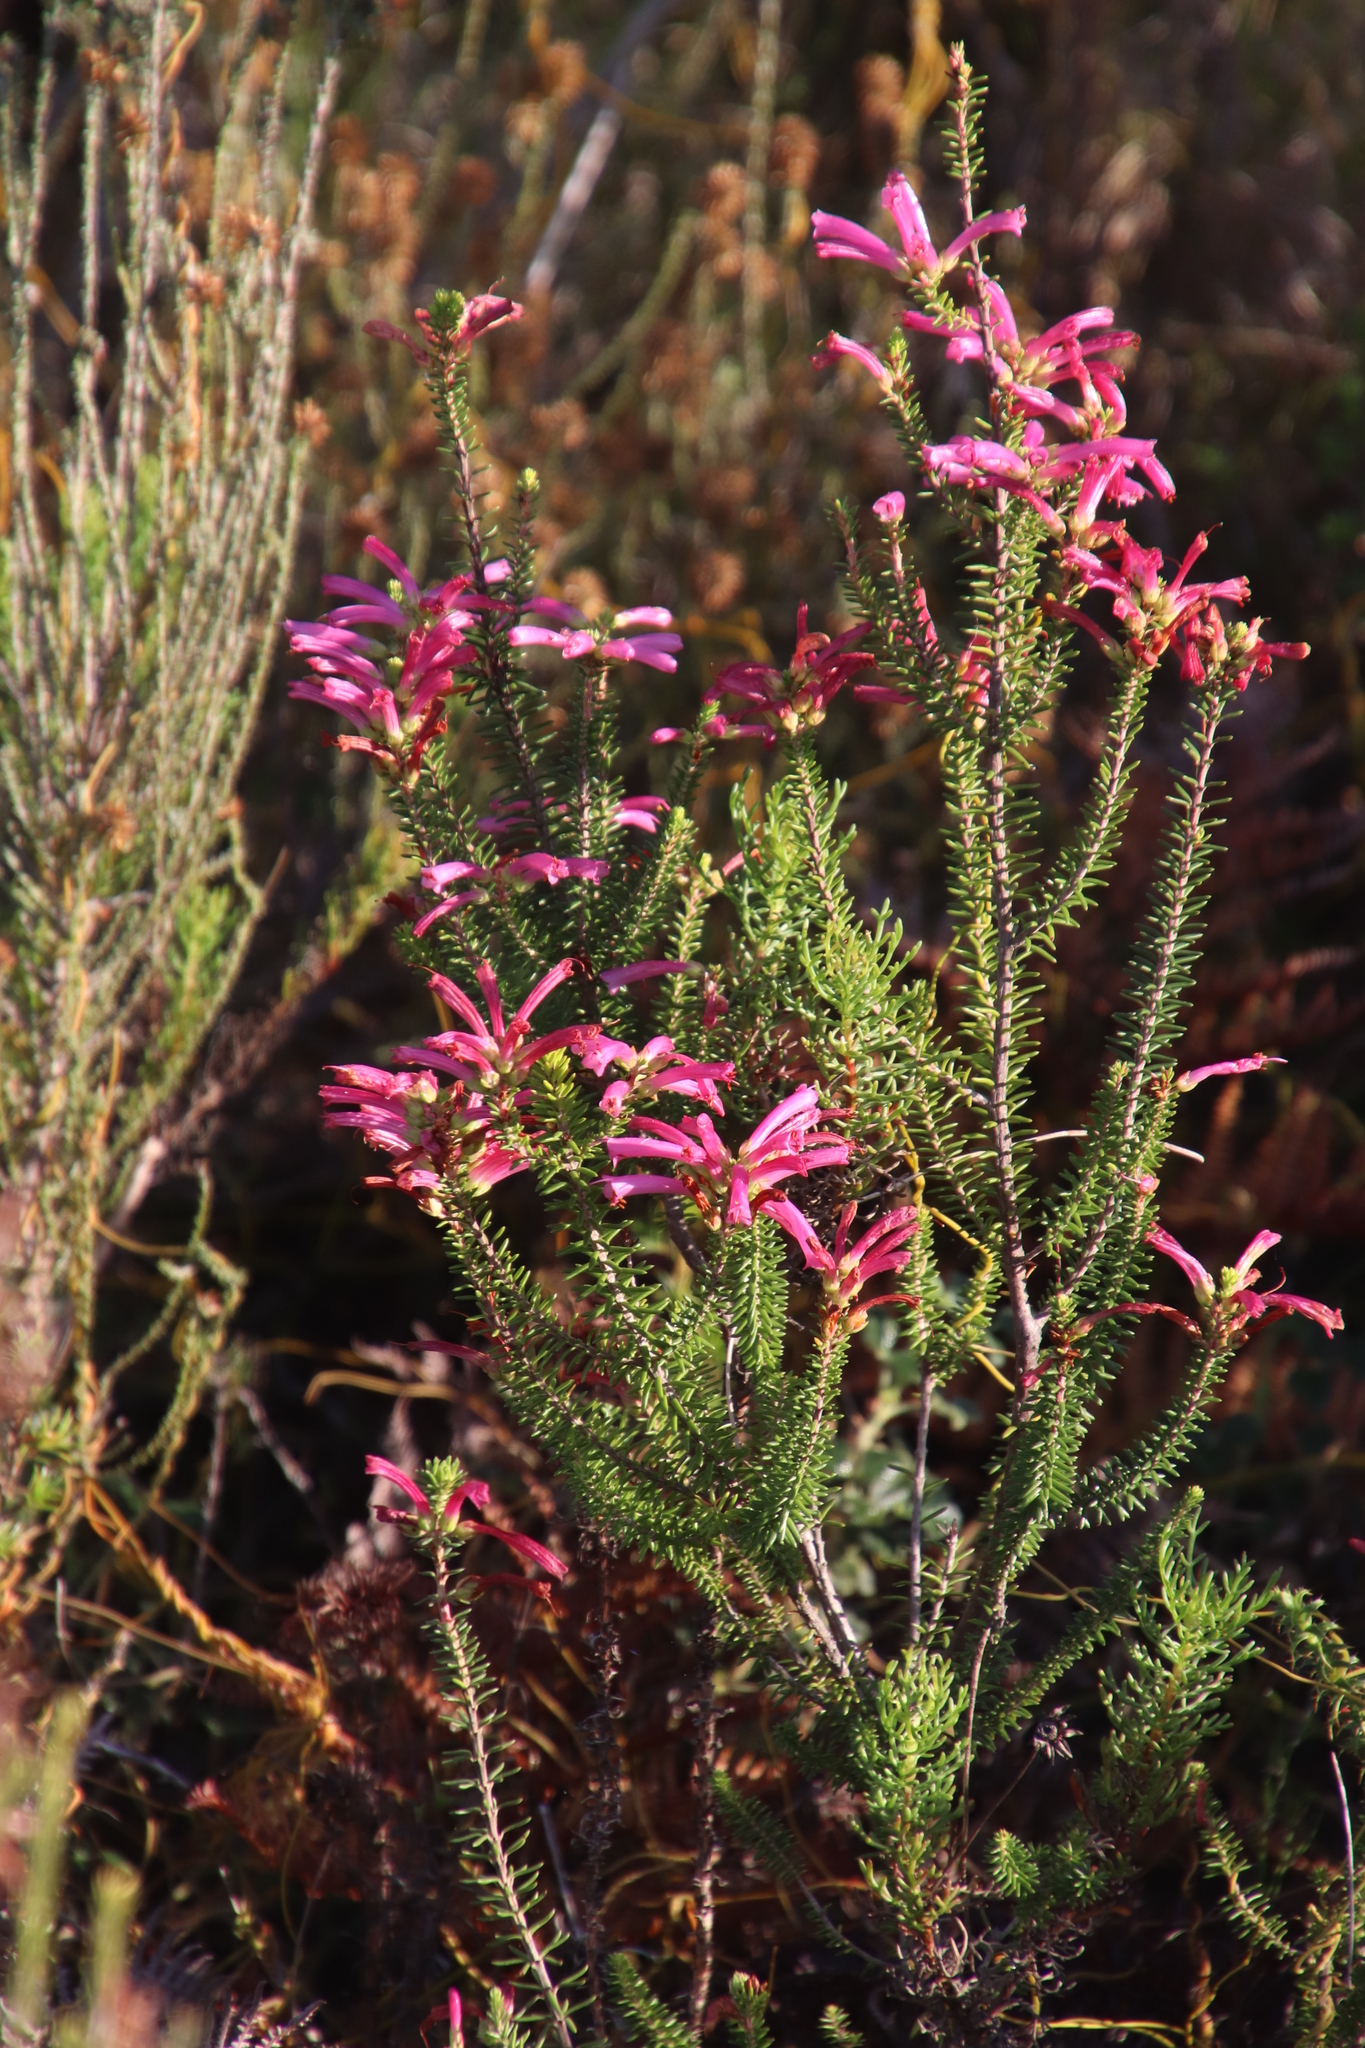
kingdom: Plantae
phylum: Tracheophyta
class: Magnoliopsida
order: Ericales
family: Ericaceae
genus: Erica
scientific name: Erica abietina
